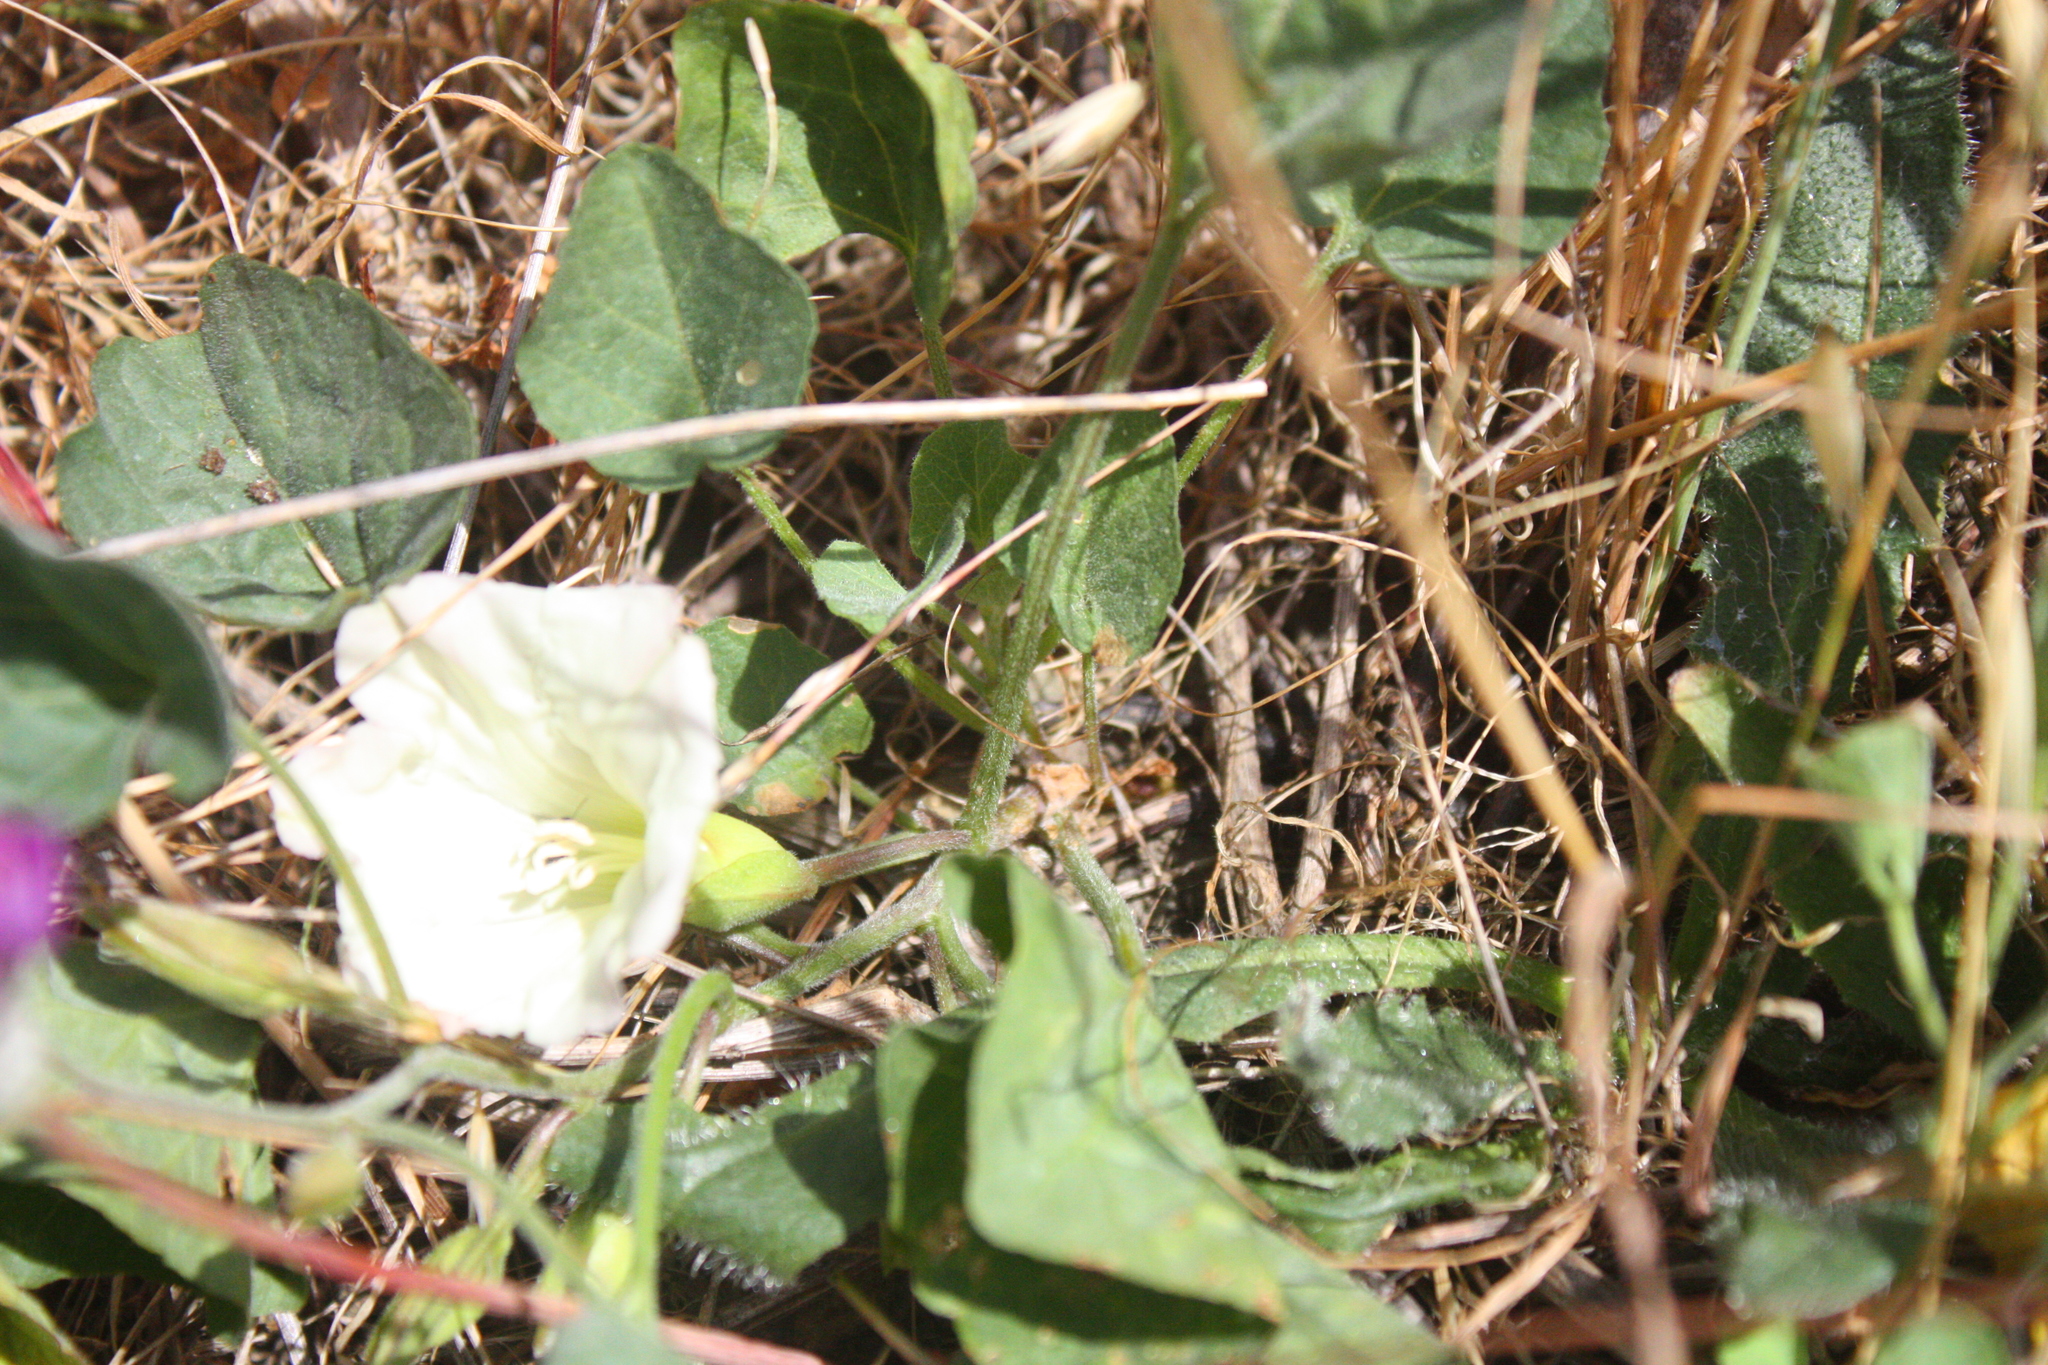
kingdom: Plantae
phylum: Tracheophyta
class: Magnoliopsida
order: Solanales
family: Convolvulaceae
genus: Calystegia
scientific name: Calystegia subacaulis
